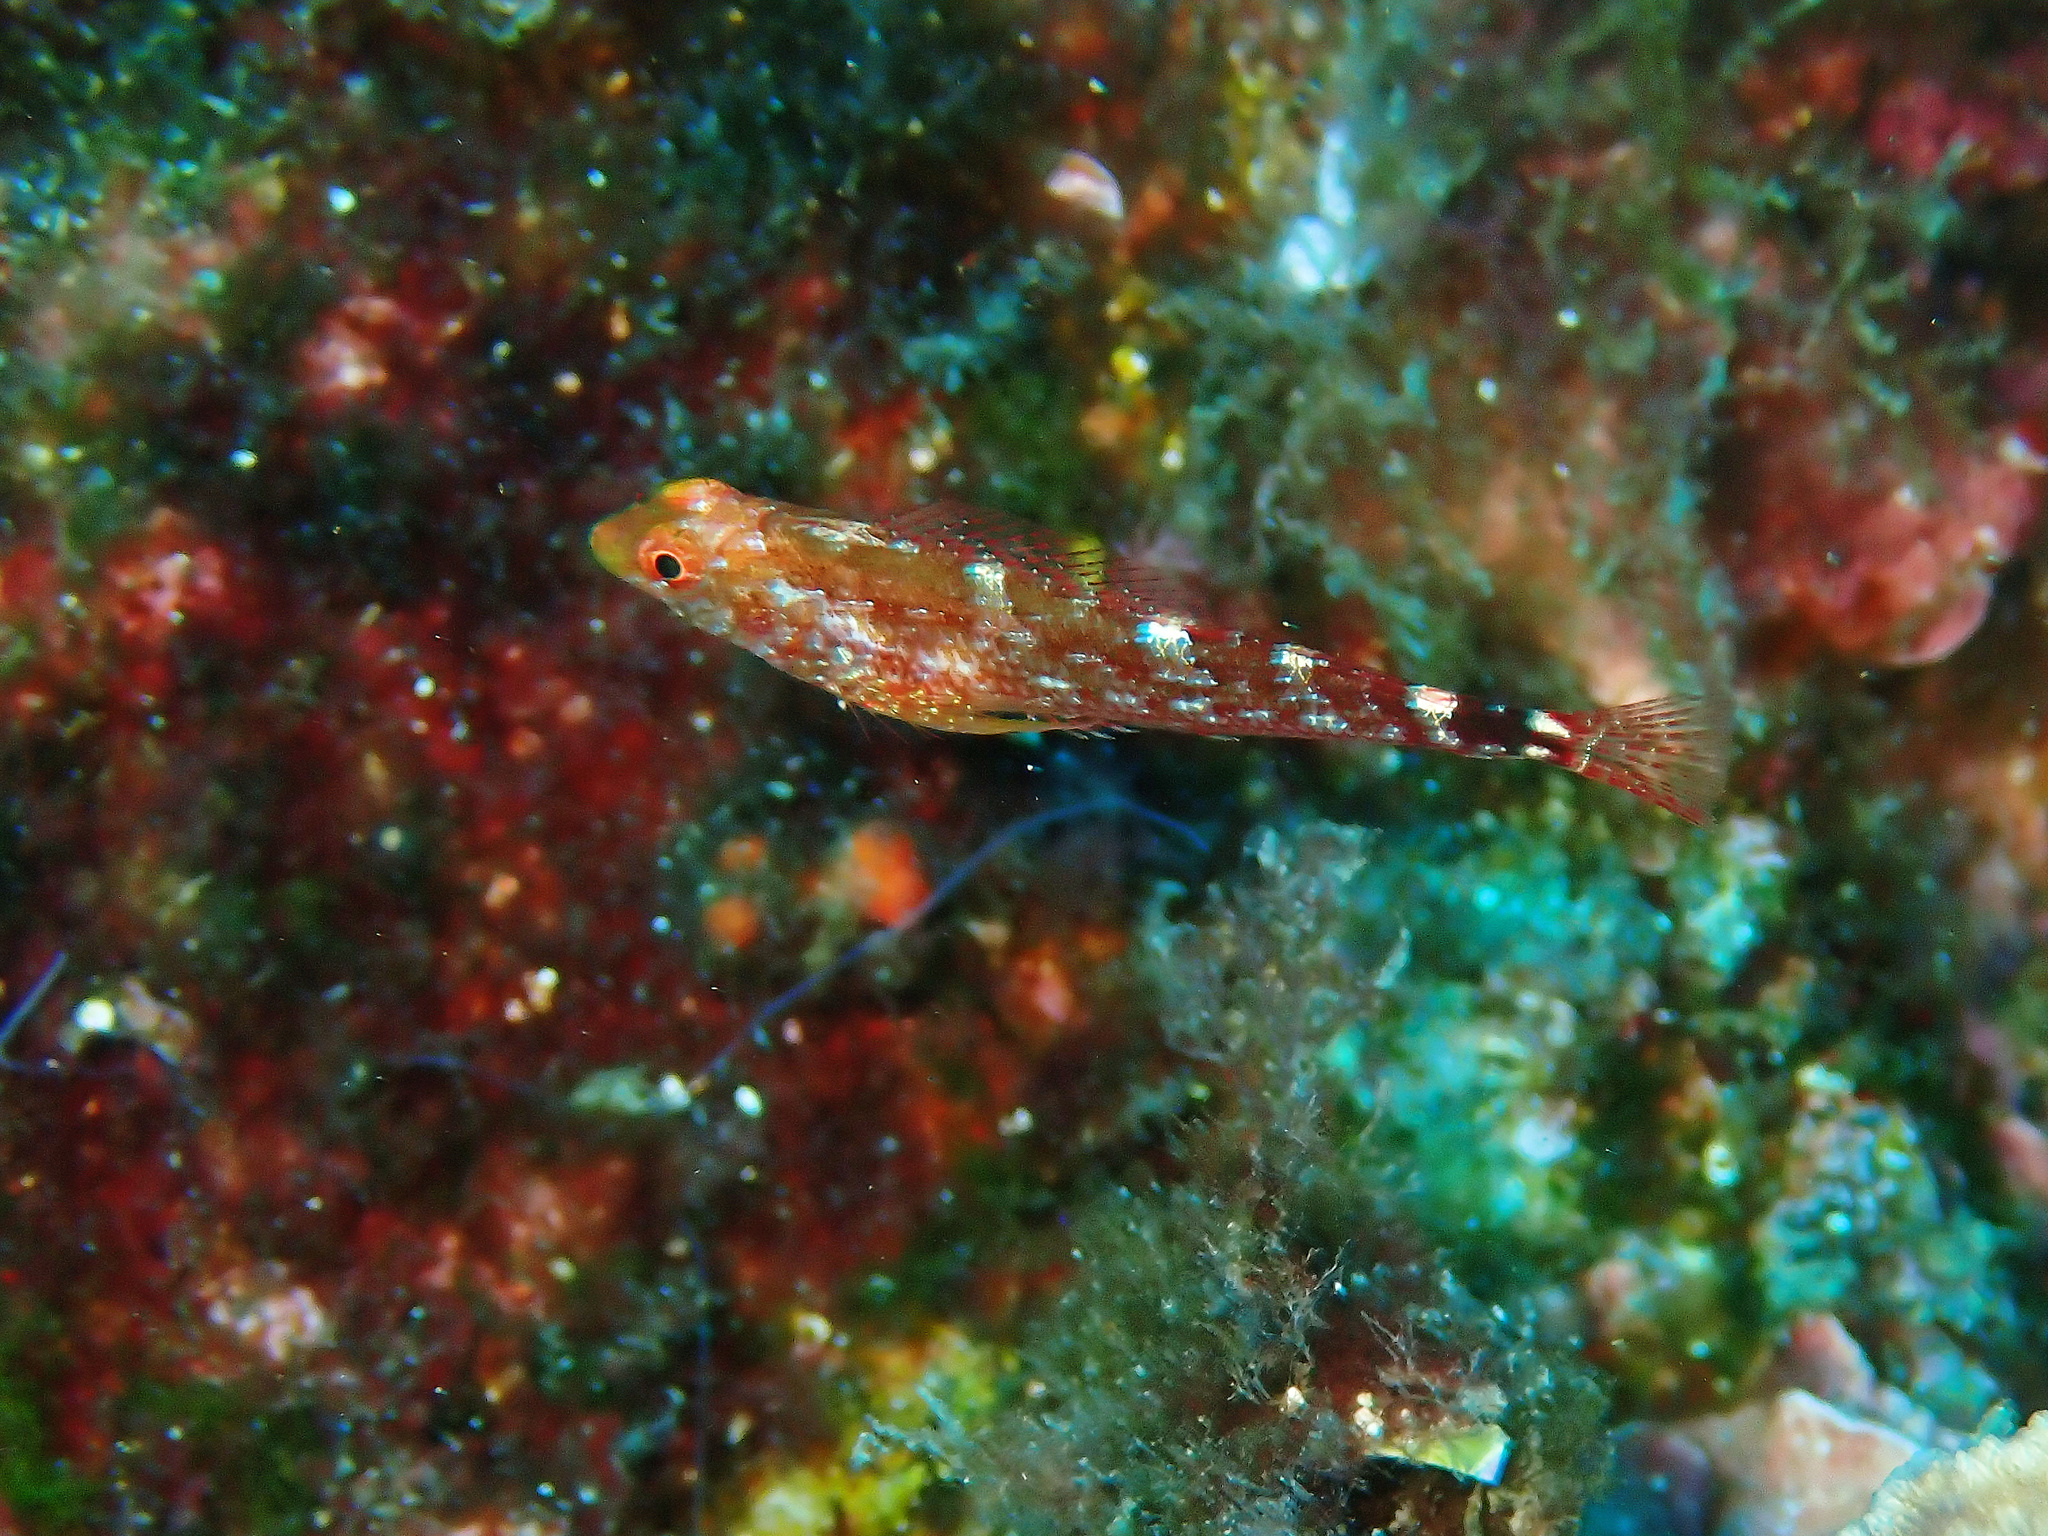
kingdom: Animalia
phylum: Chordata
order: Perciformes
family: Tripterygiidae
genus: Tripterygion
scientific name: Tripterygion delaisi
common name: Black-face blenny
